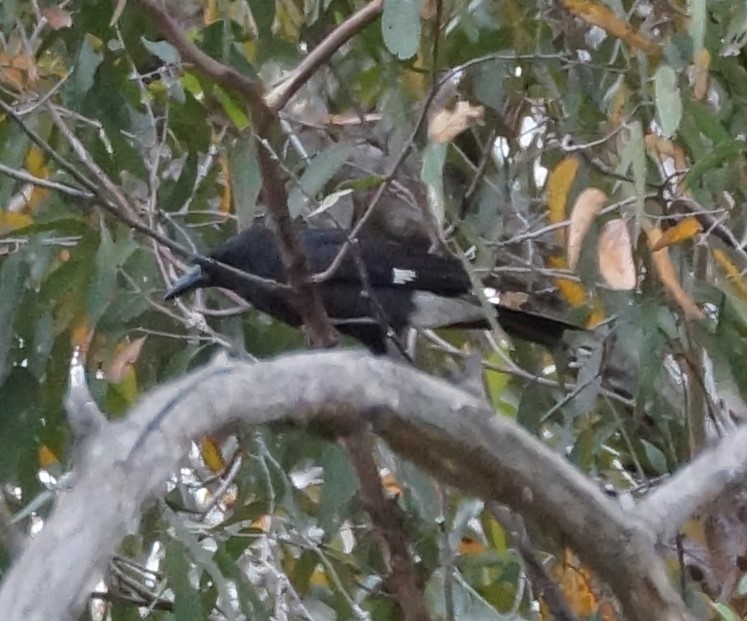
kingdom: Animalia
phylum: Chordata
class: Aves
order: Passeriformes
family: Cracticidae
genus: Strepera
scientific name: Strepera graculina
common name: Pied currawong
